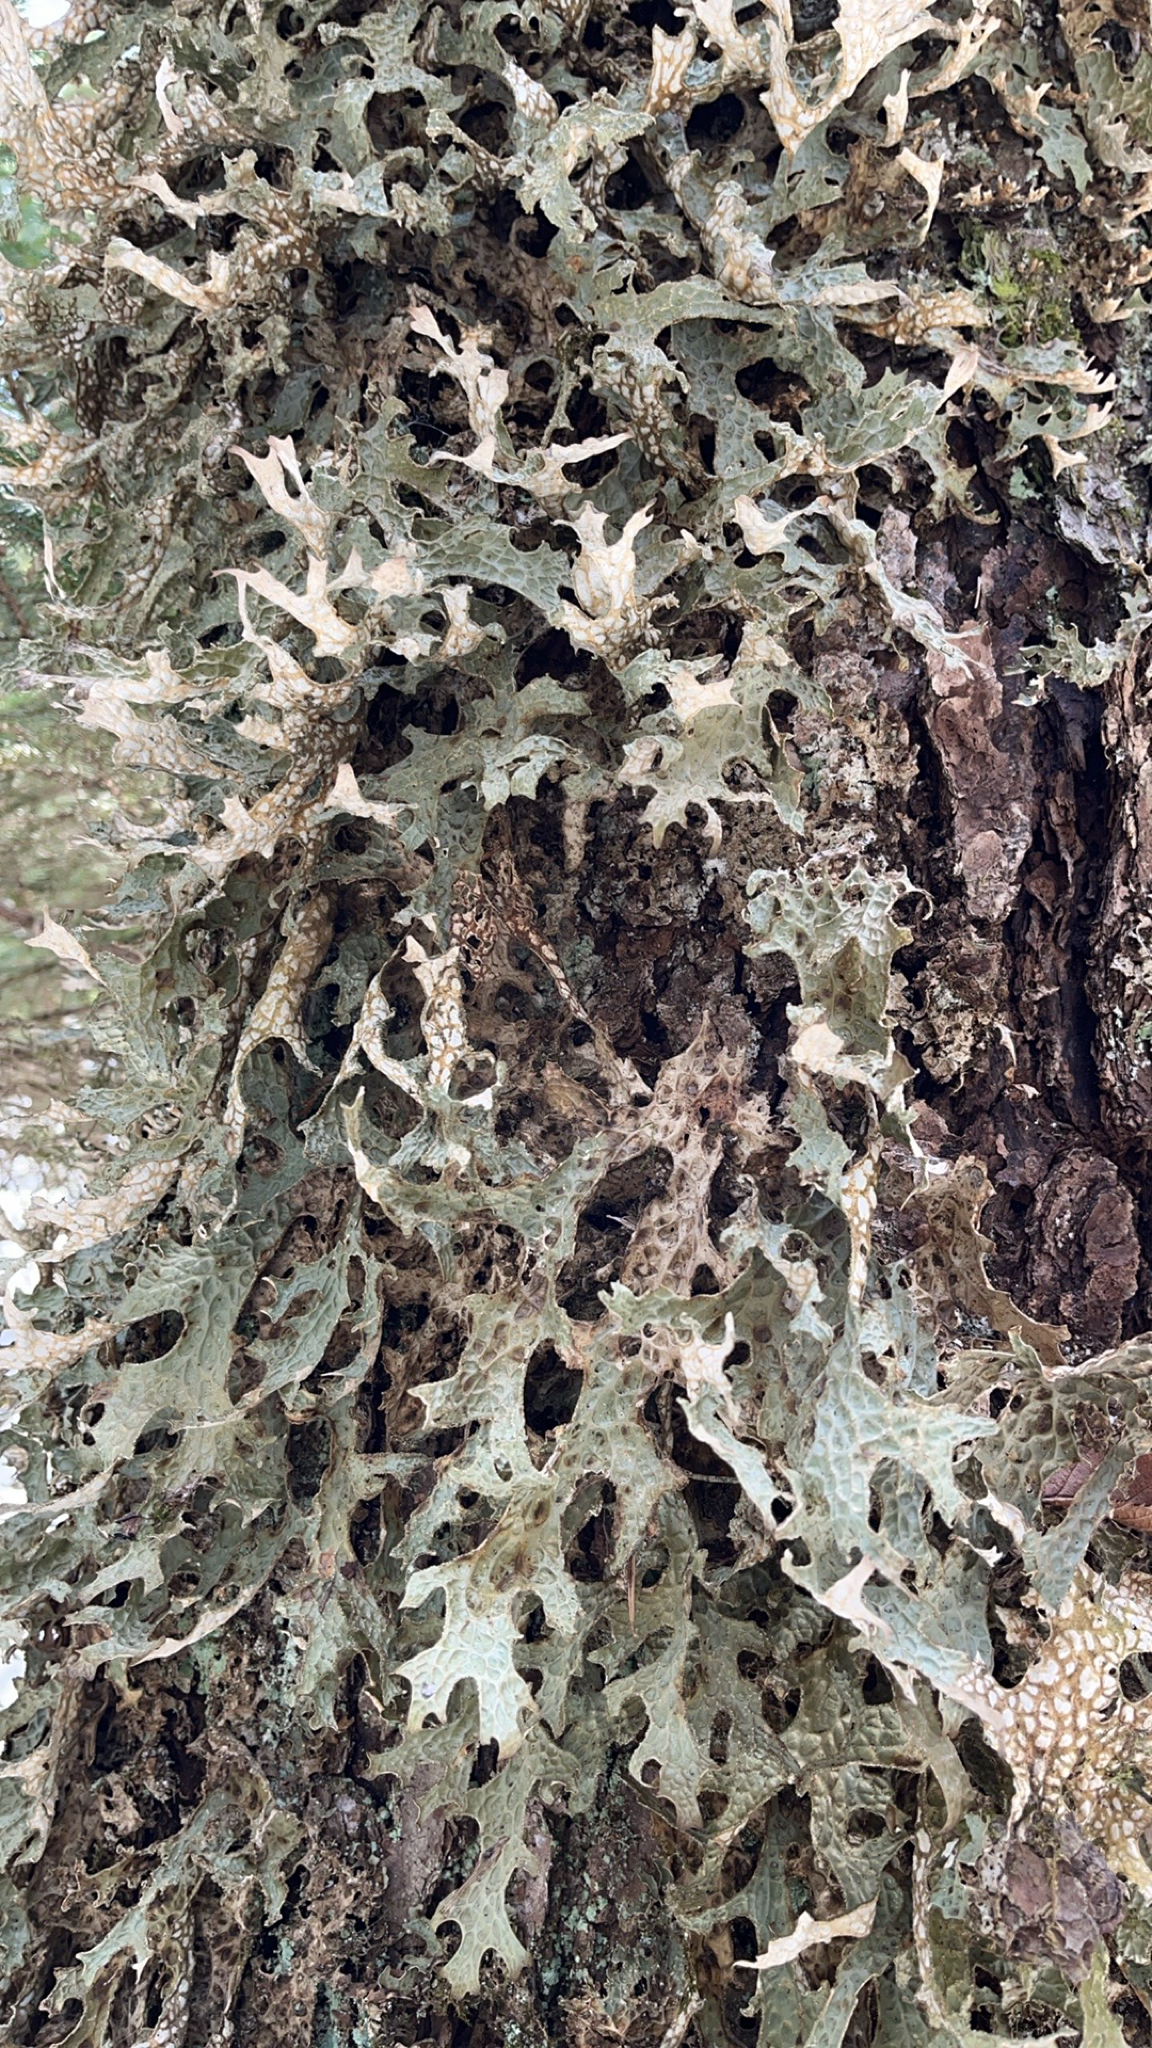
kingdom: Fungi
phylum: Ascomycota
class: Lecanoromycetes
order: Peltigerales
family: Lobariaceae
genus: Lobaria
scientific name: Lobaria pulmonaria
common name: Lungwort
